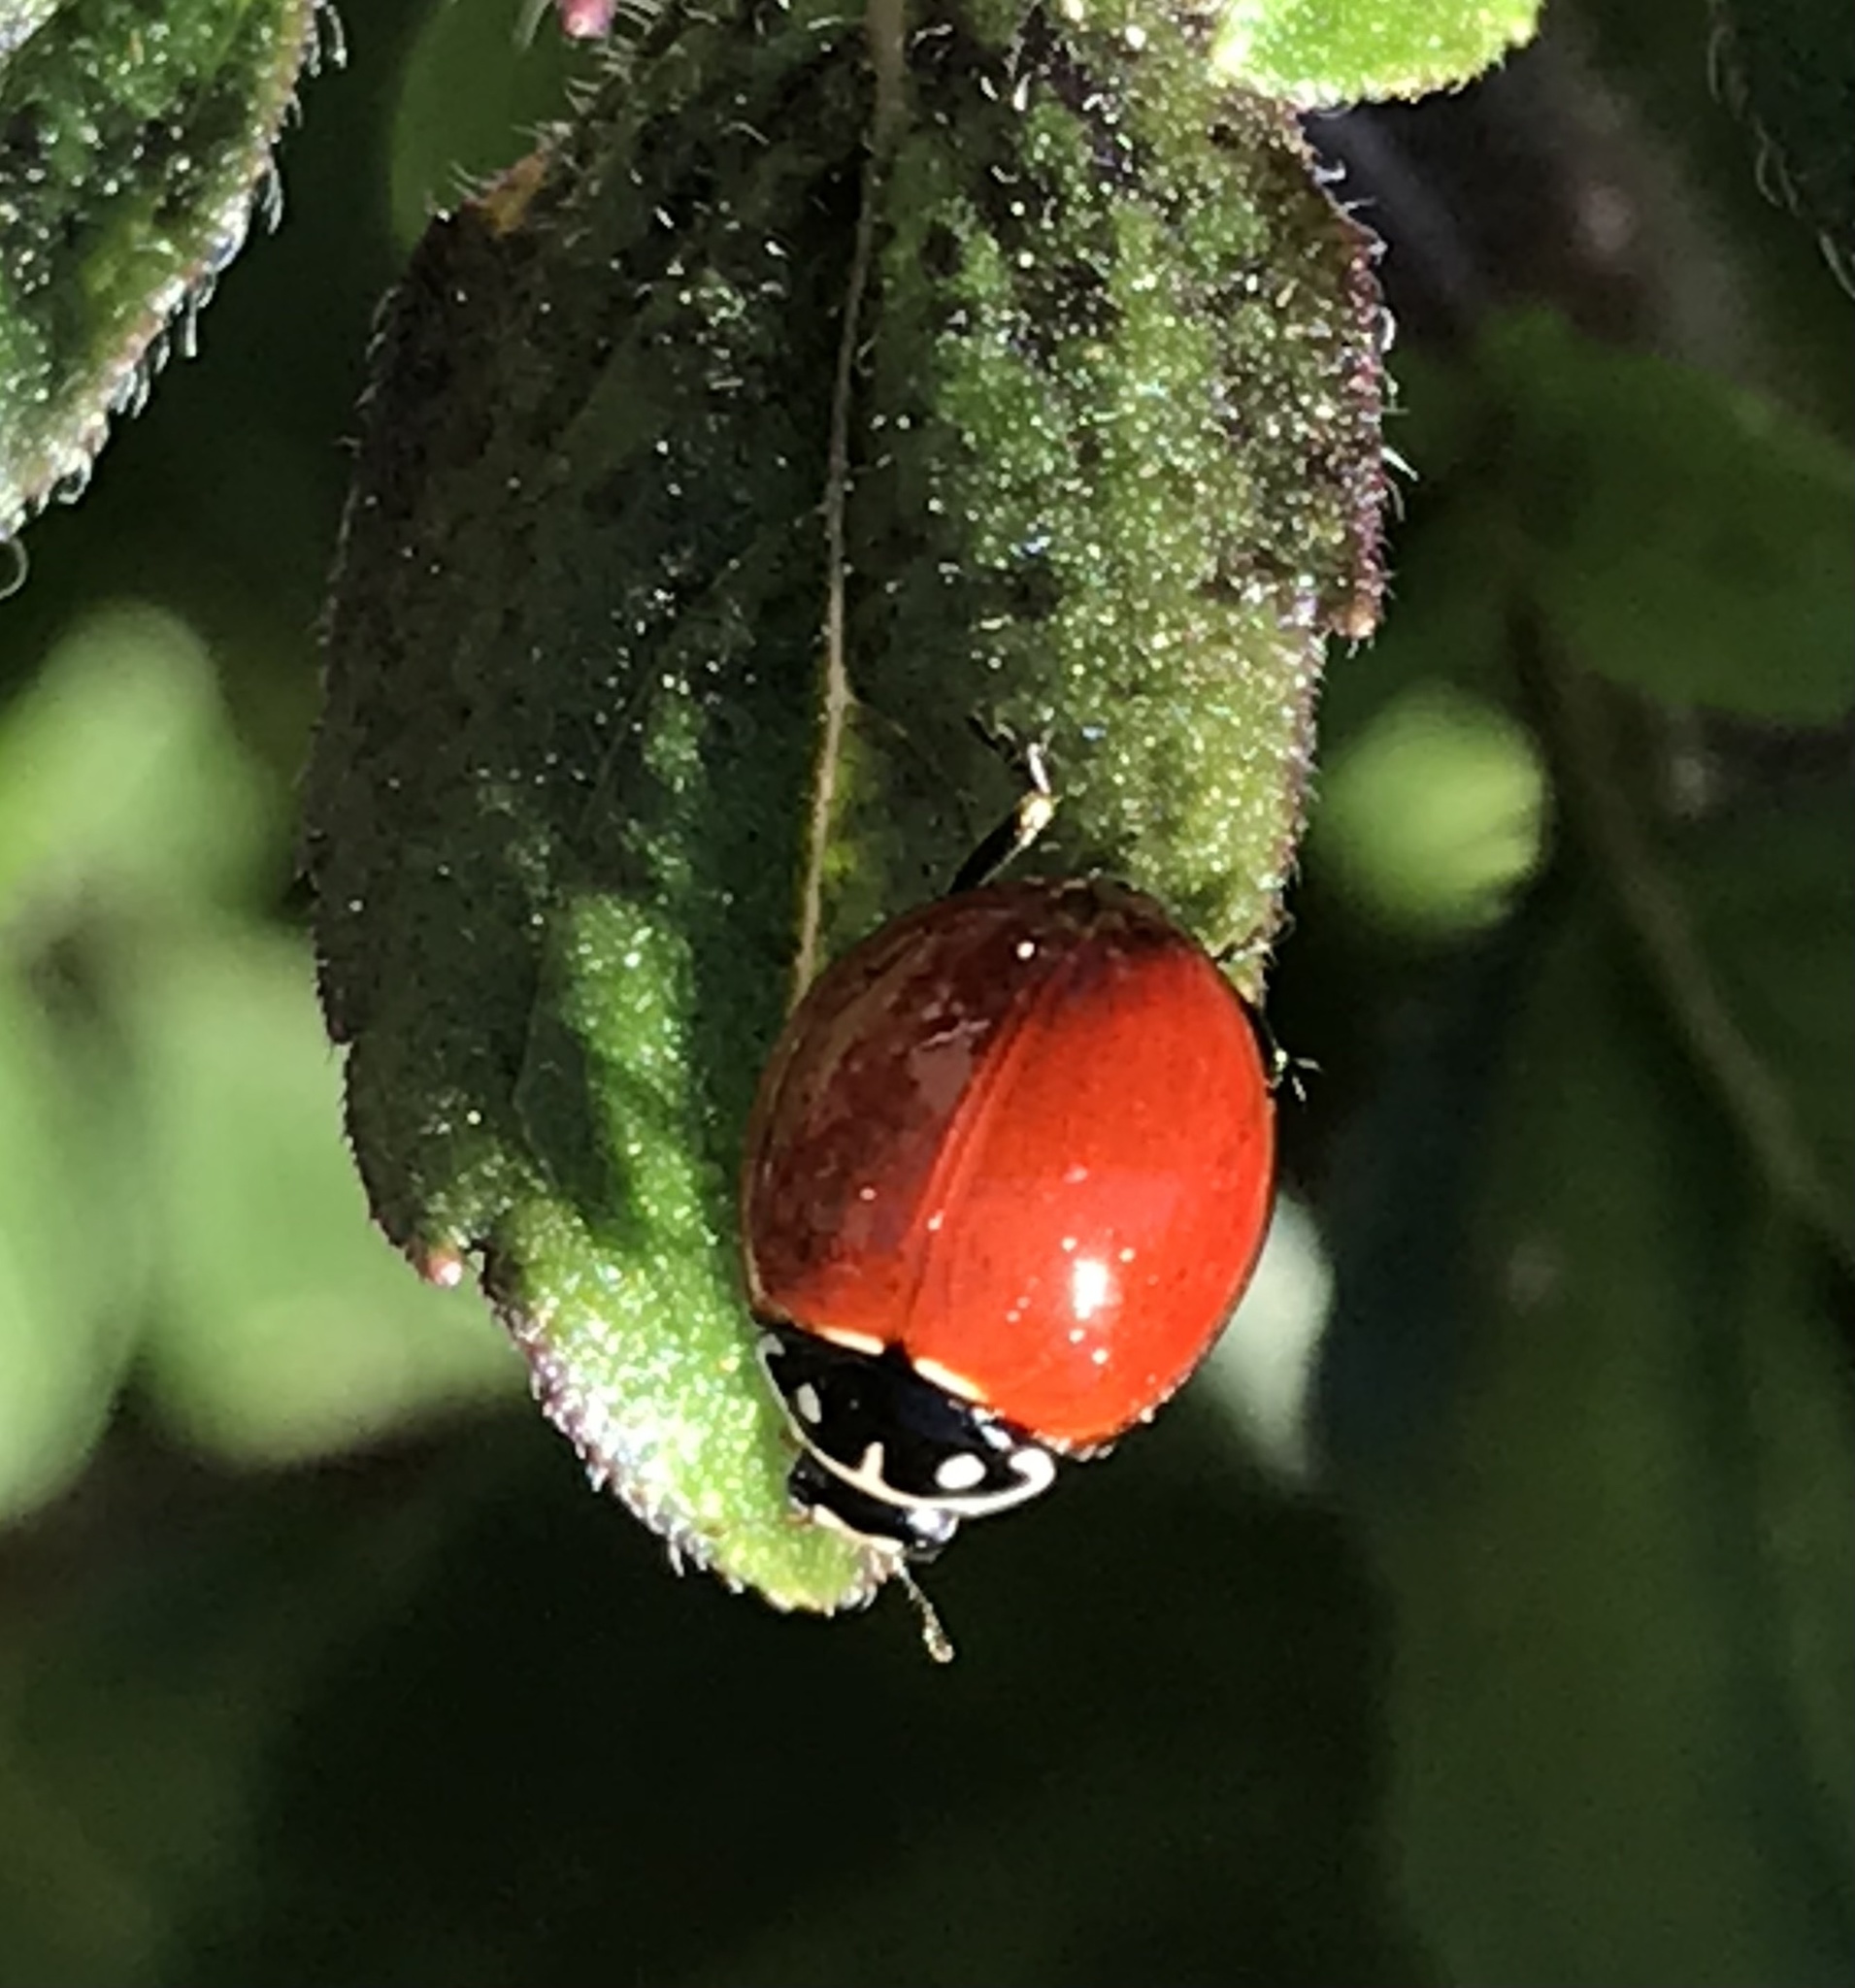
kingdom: Animalia
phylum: Arthropoda
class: Insecta
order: Coleoptera
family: Coccinellidae
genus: Cycloneda
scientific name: Cycloneda sanguinea
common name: Ladybird beetle
